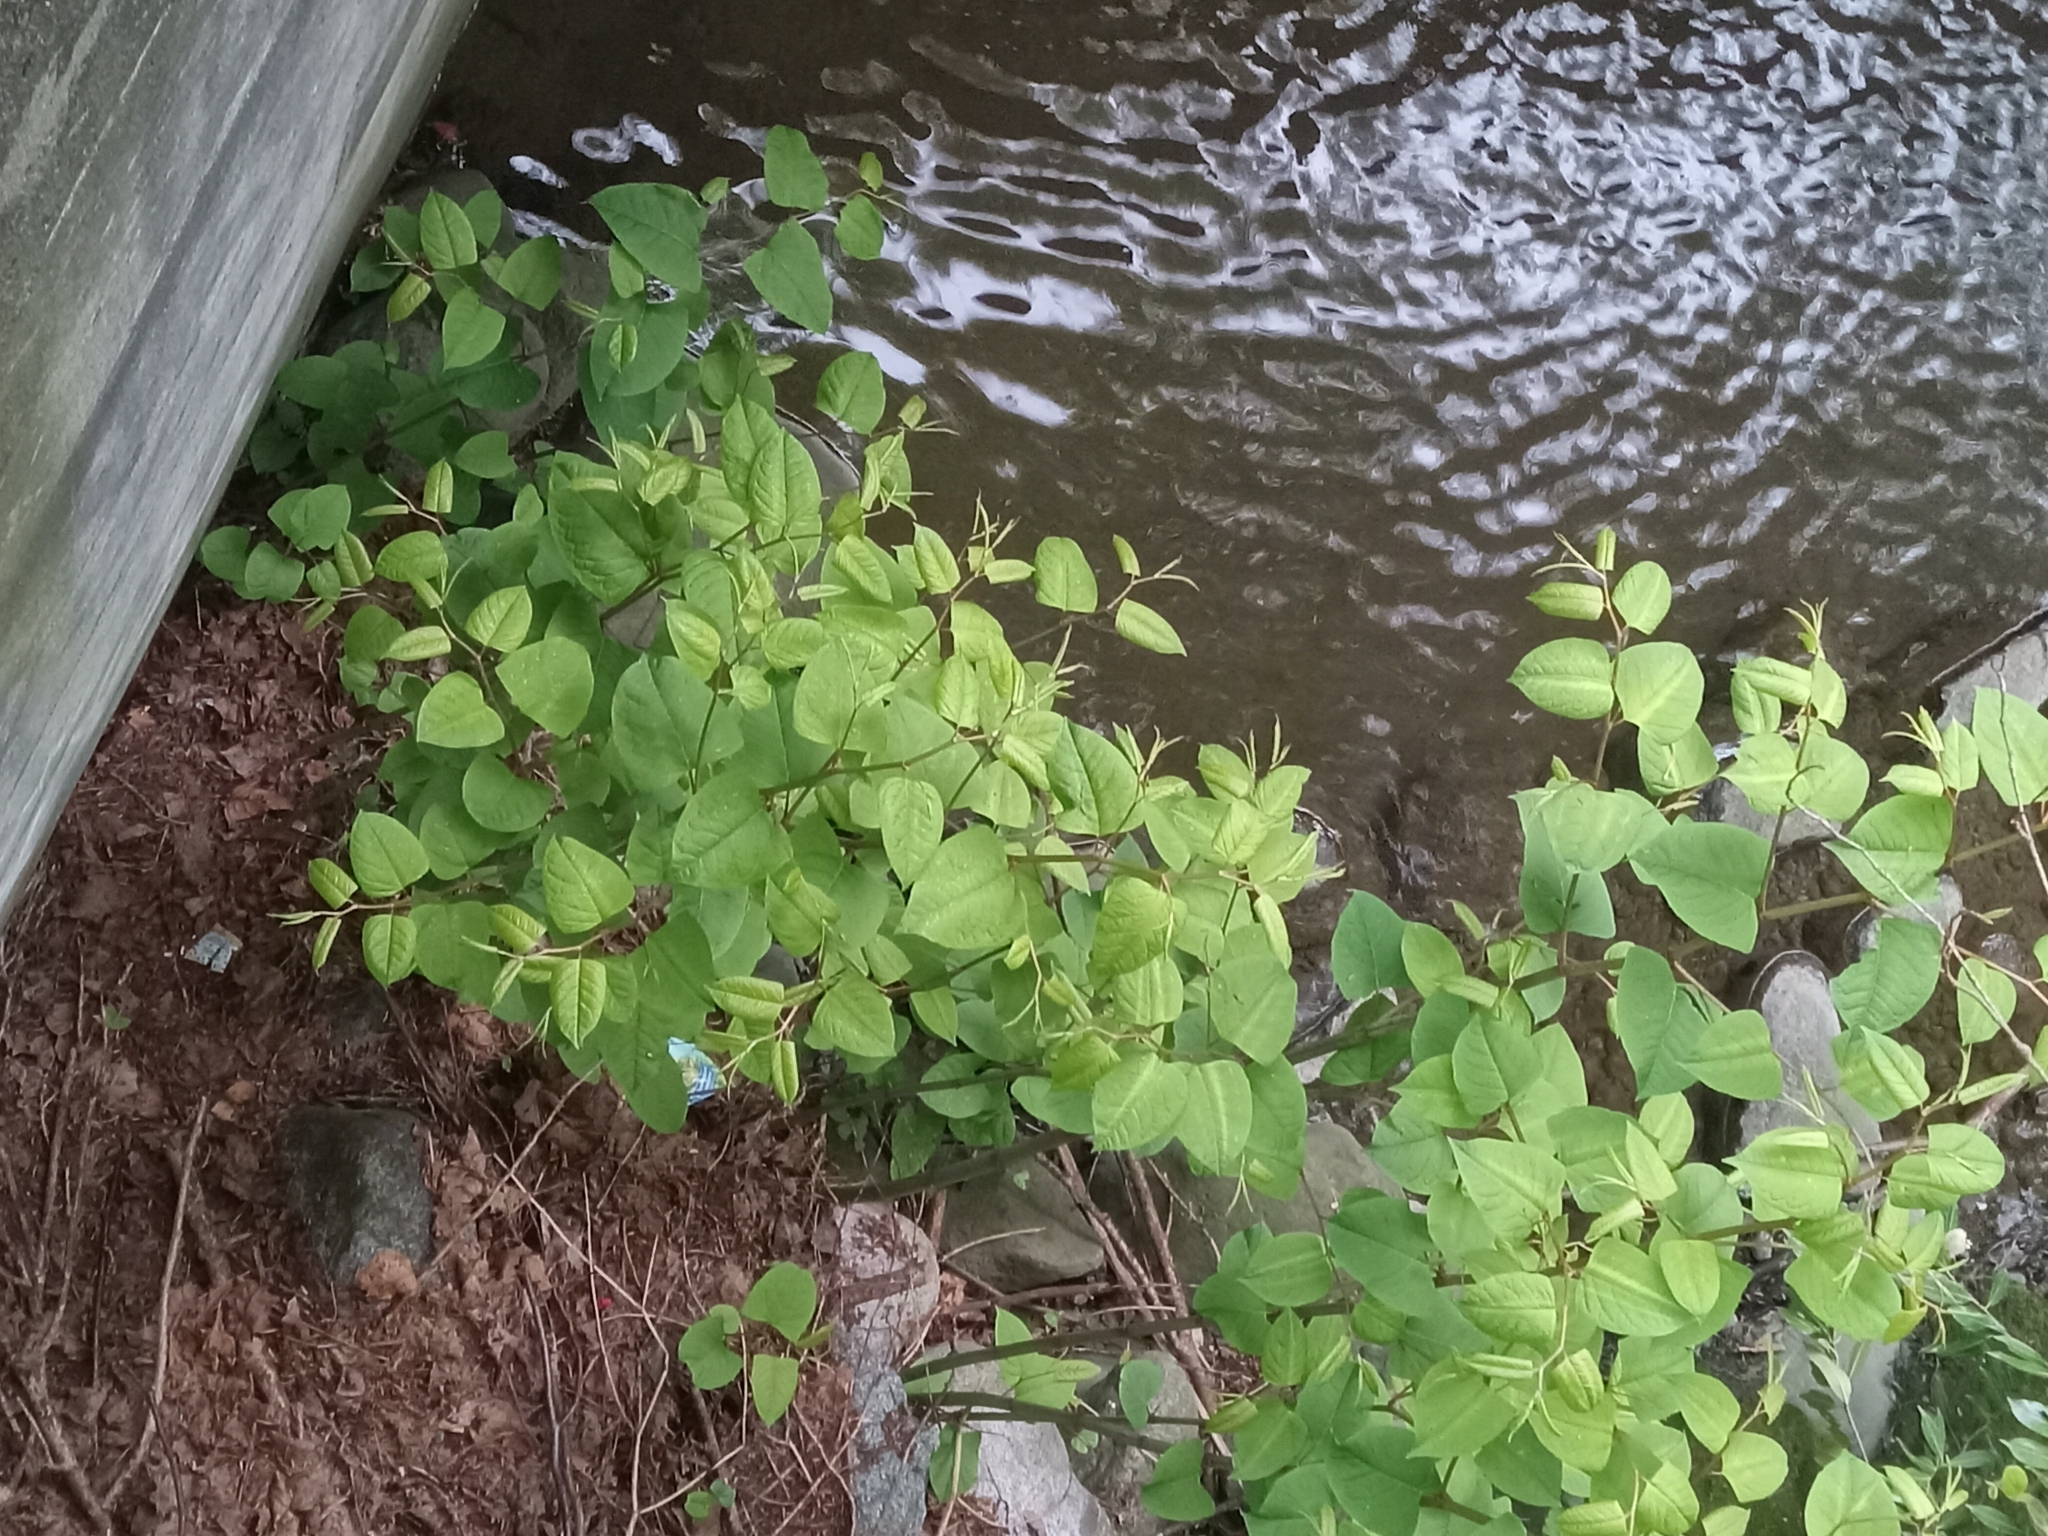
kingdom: Plantae
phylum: Tracheophyta
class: Magnoliopsida
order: Caryophyllales
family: Polygonaceae
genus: Reynoutria
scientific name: Reynoutria japonica
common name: Japanese knotweed
